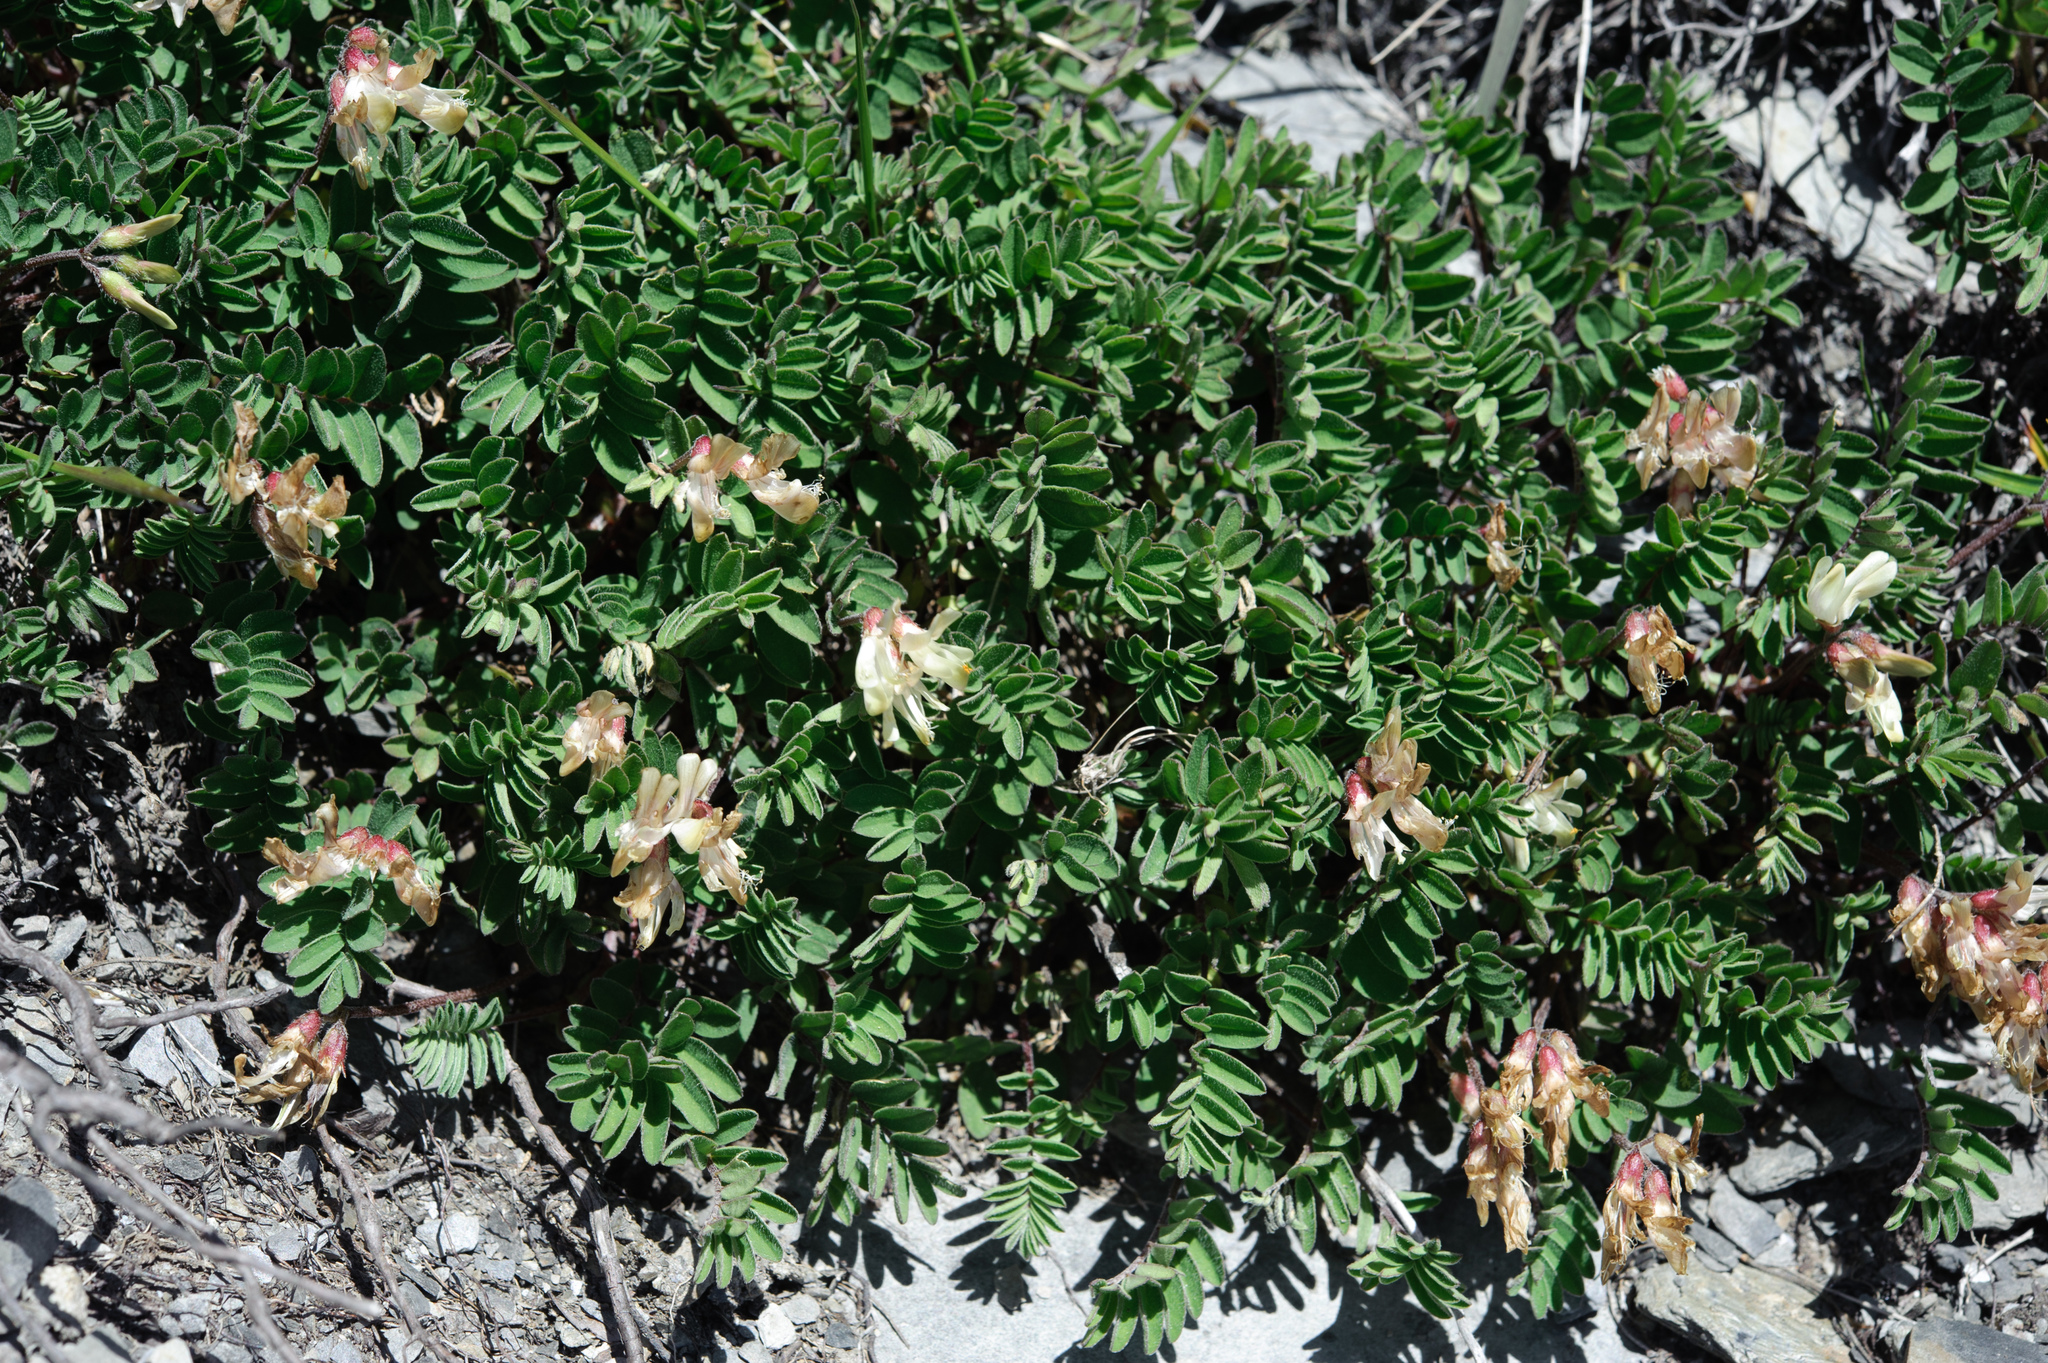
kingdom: Plantae
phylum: Tracheophyta
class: Magnoliopsida
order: Fabales
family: Fabaceae
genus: Astragalus
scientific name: Astragalus nankotaizanensis
